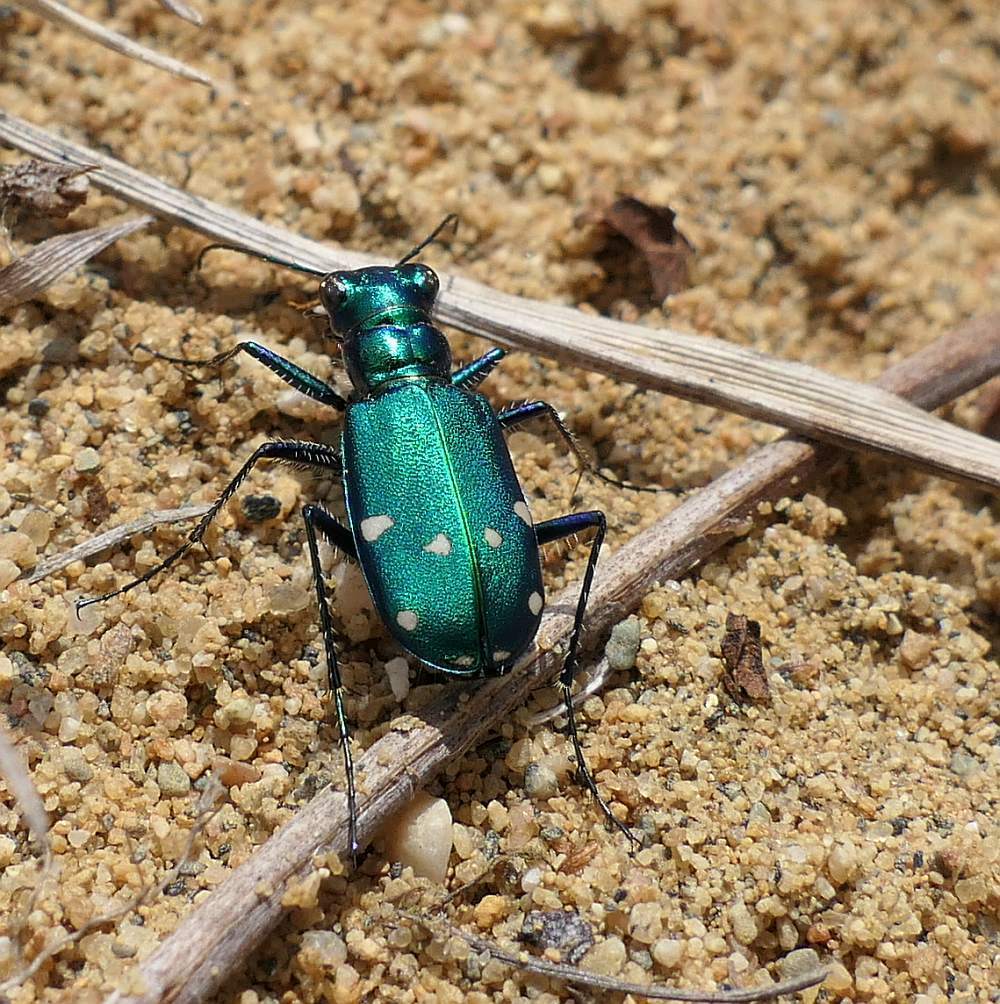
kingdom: Animalia
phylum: Arthropoda
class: Insecta
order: Coleoptera
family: Carabidae
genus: Cicindela
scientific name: Cicindela sexguttata
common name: Six-spotted tiger beetle
